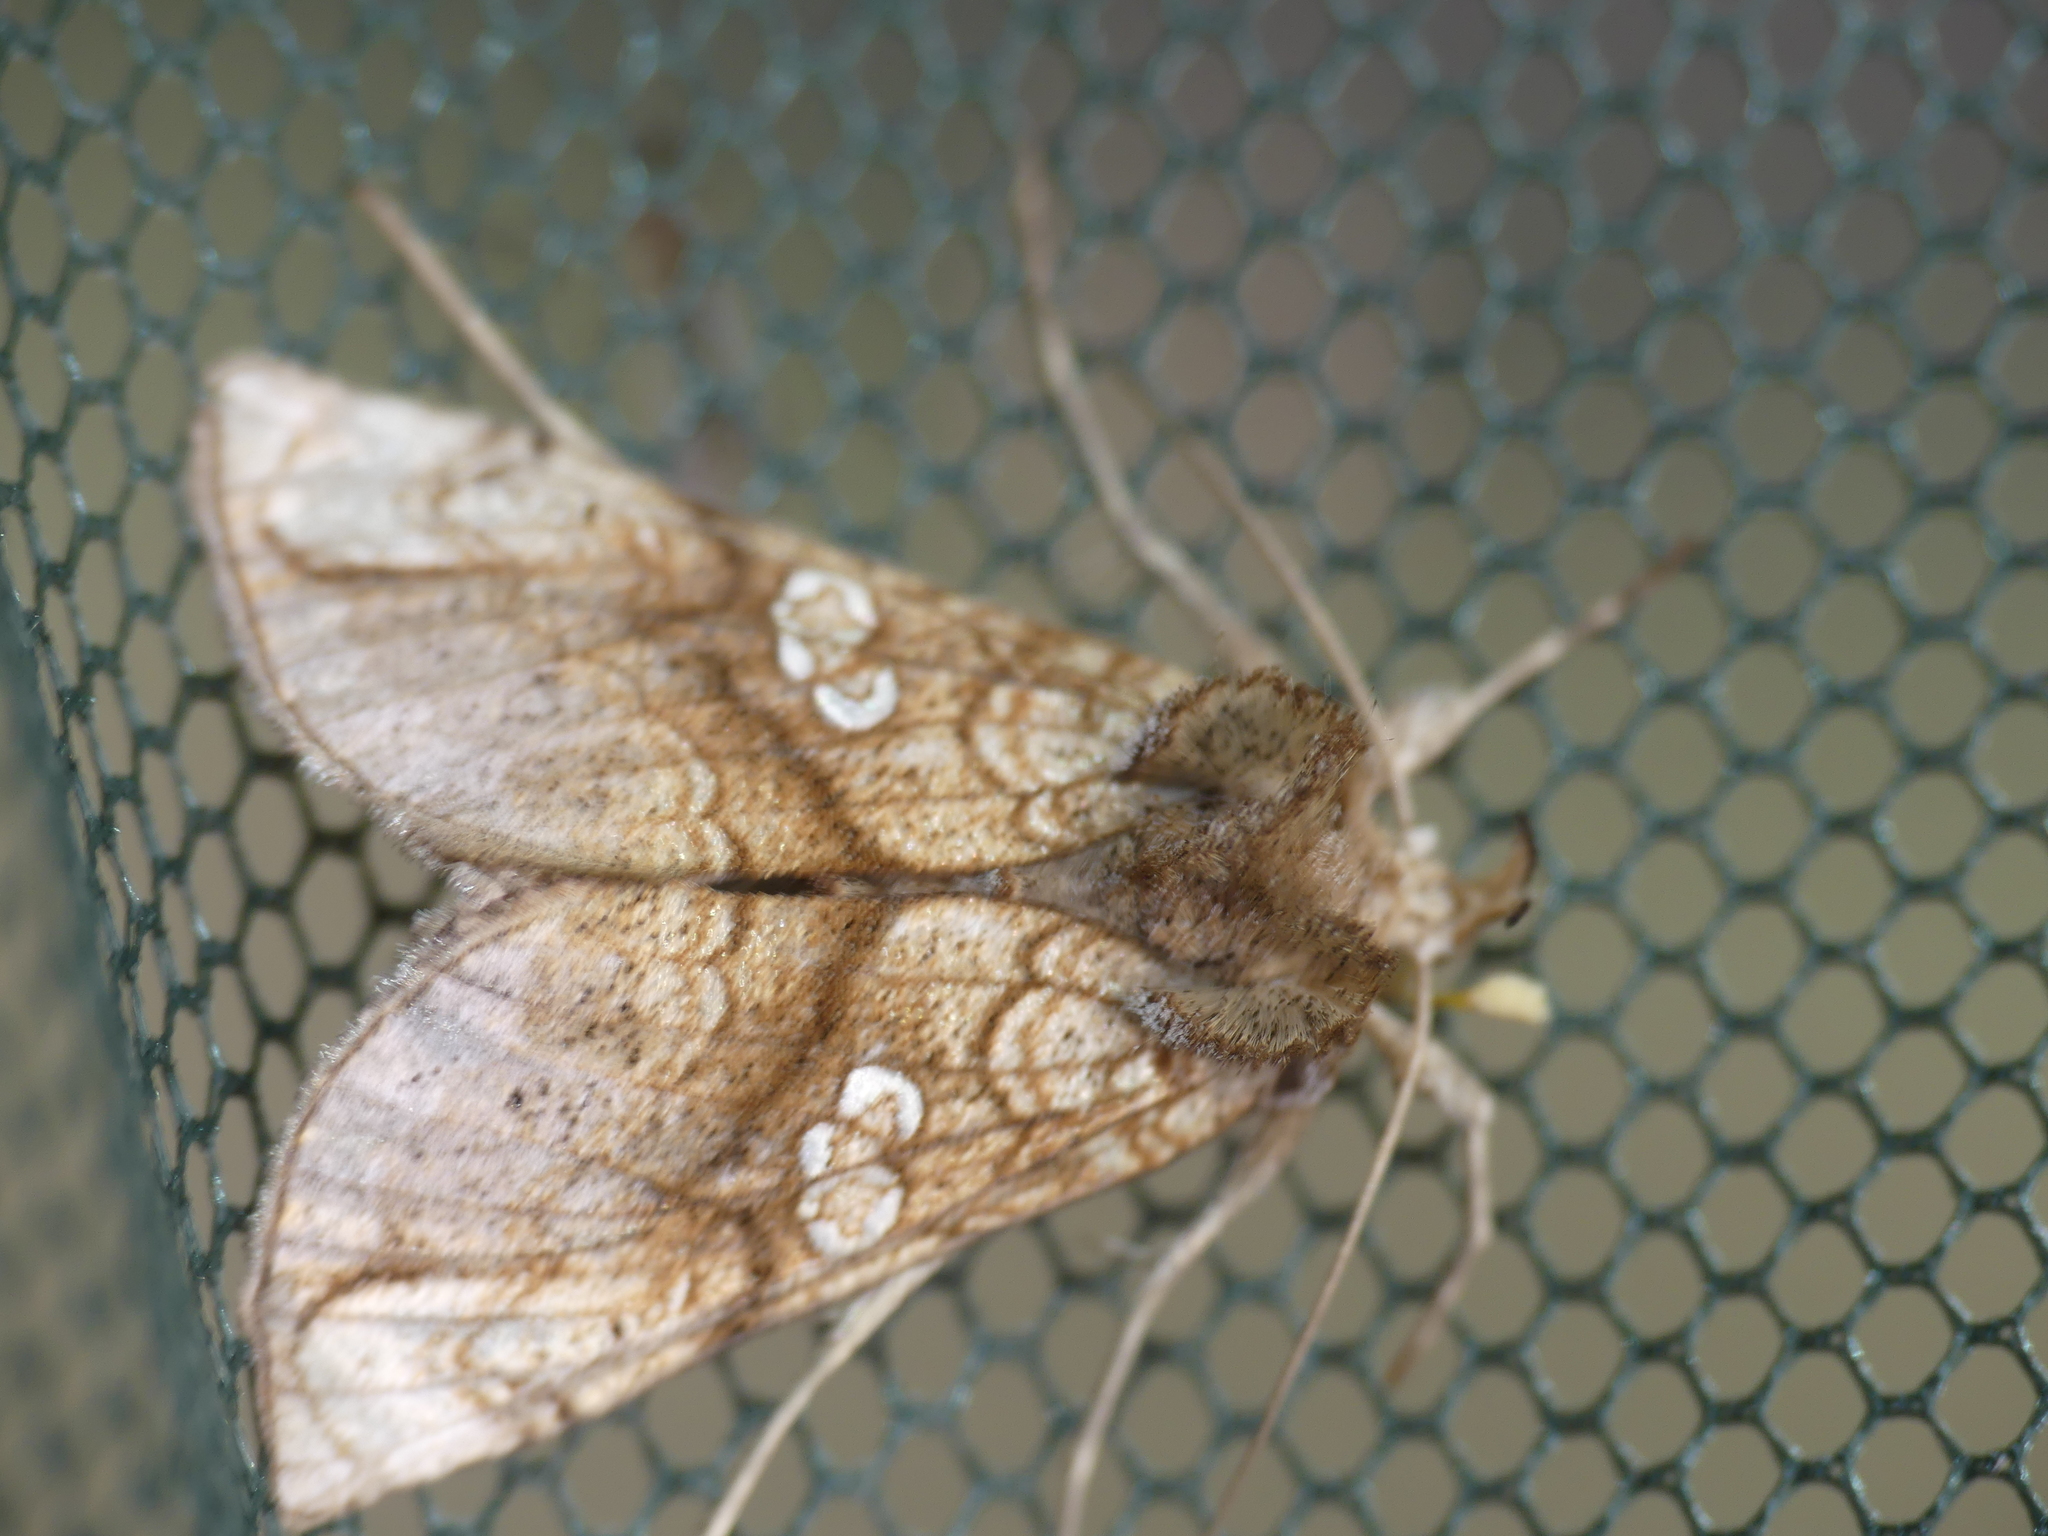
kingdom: Animalia
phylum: Arthropoda
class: Insecta
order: Lepidoptera
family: Noctuidae
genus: Polychrysia
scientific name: Polychrysia moneta
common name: Golden plusia
